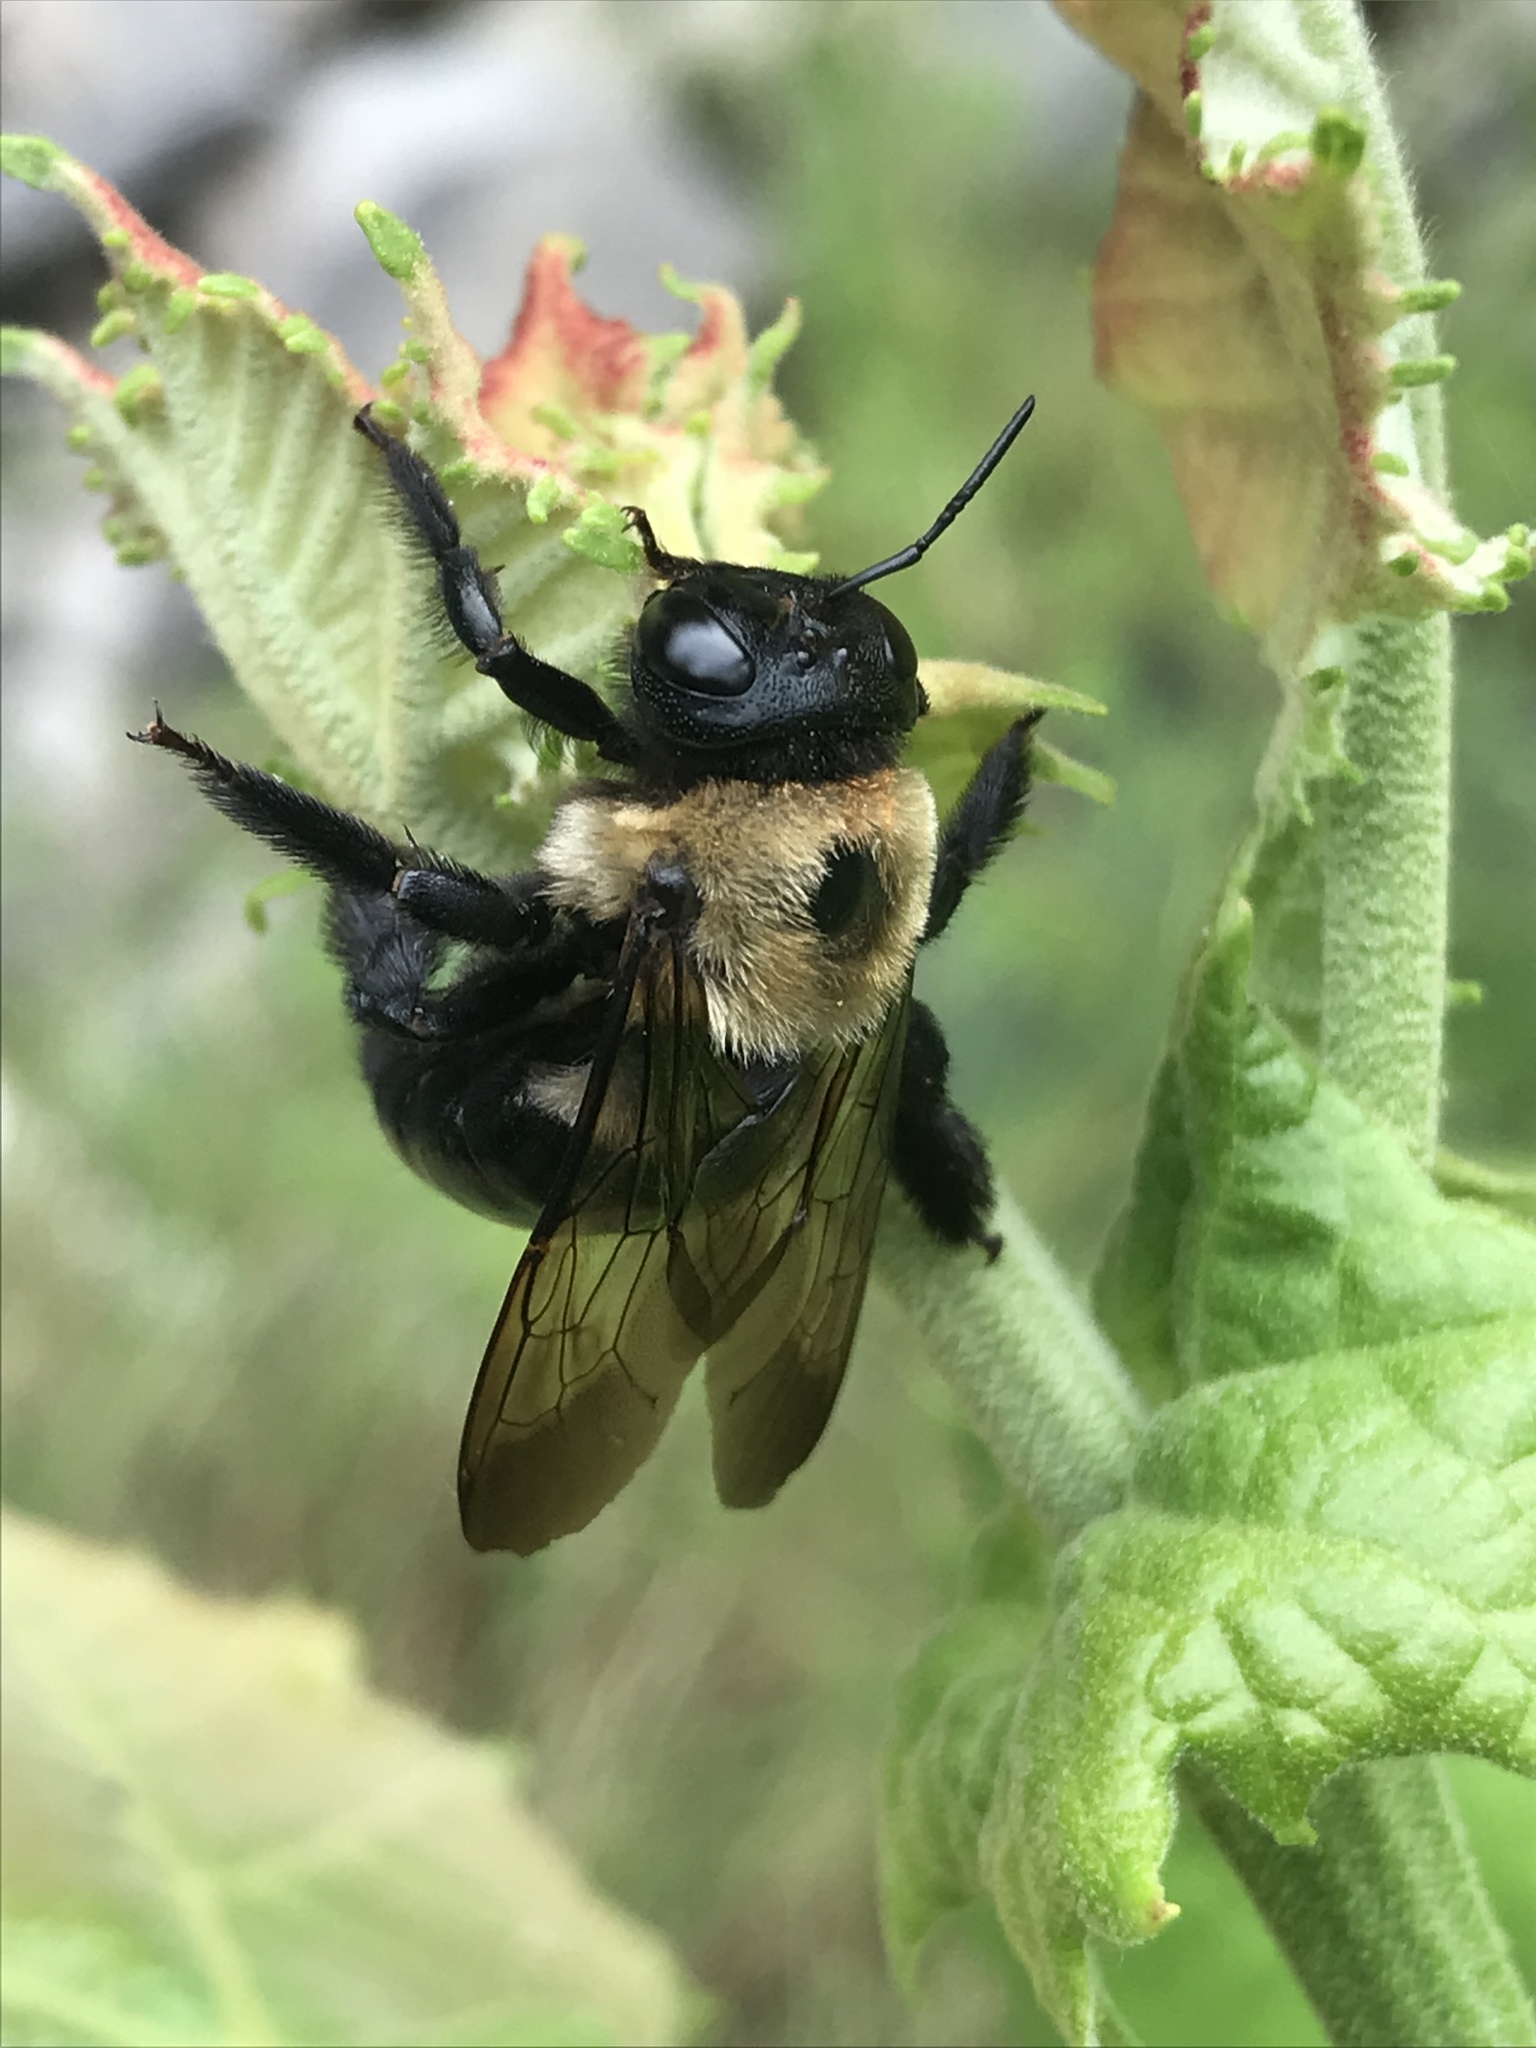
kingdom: Animalia
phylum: Arthropoda
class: Insecta
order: Hymenoptera
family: Apidae
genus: Xylocopa
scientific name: Xylocopa virginica
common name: Carpenter bee
